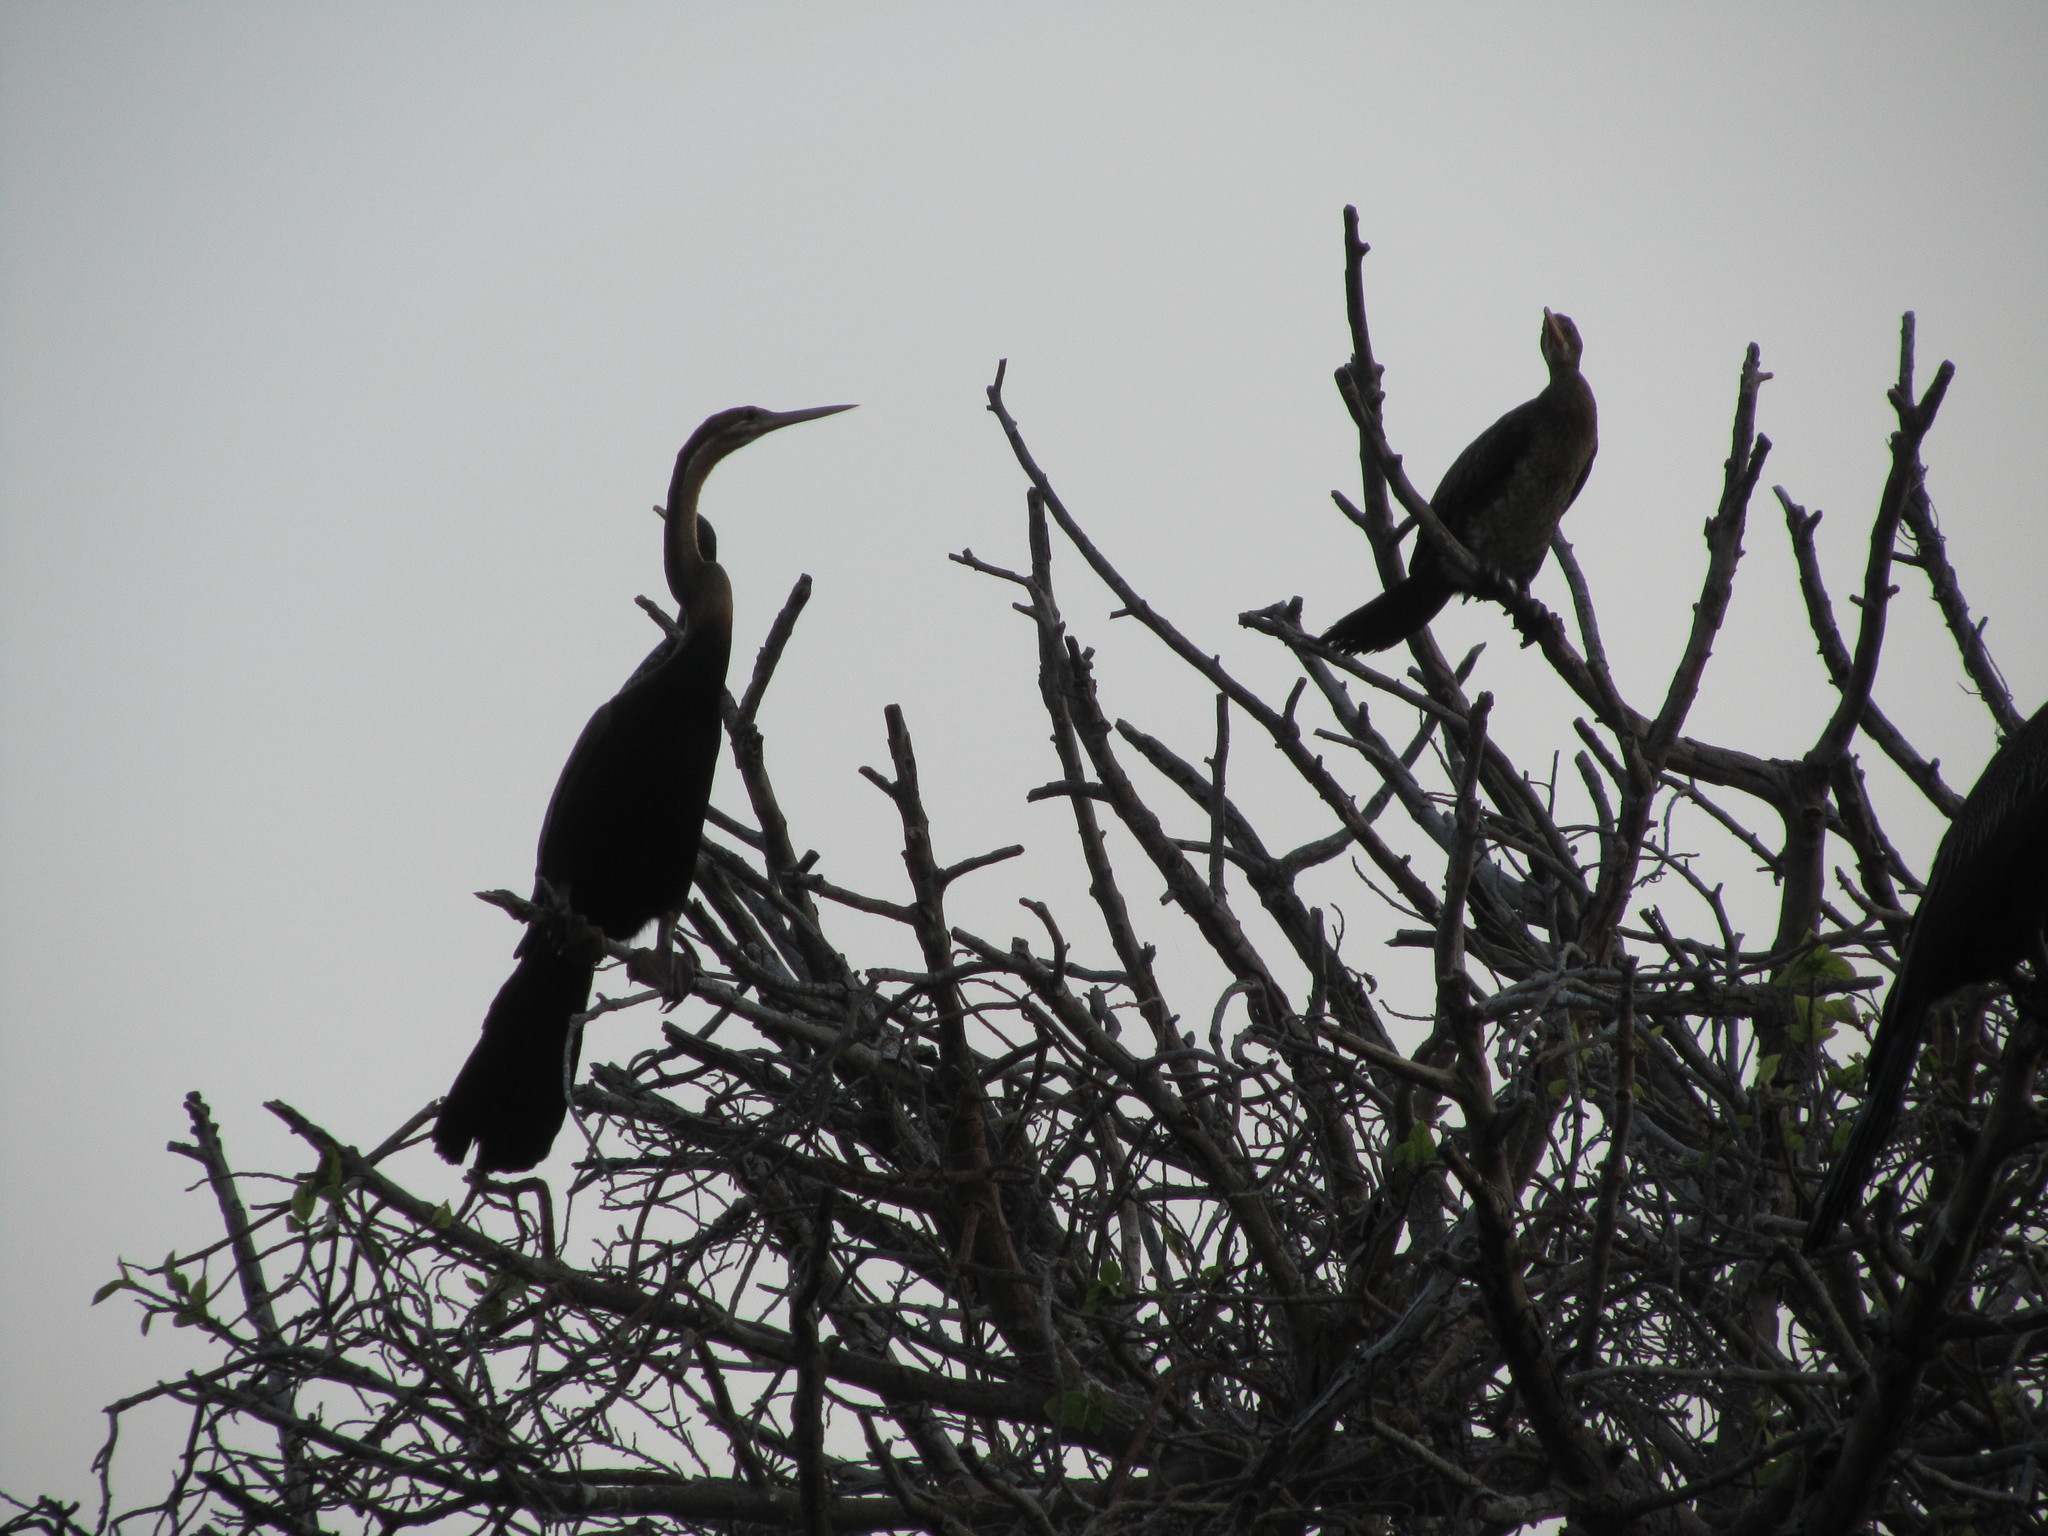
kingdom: Animalia
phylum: Chordata
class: Aves
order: Suliformes
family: Anhingidae
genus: Anhinga
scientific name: Anhinga rufa
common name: African darter
